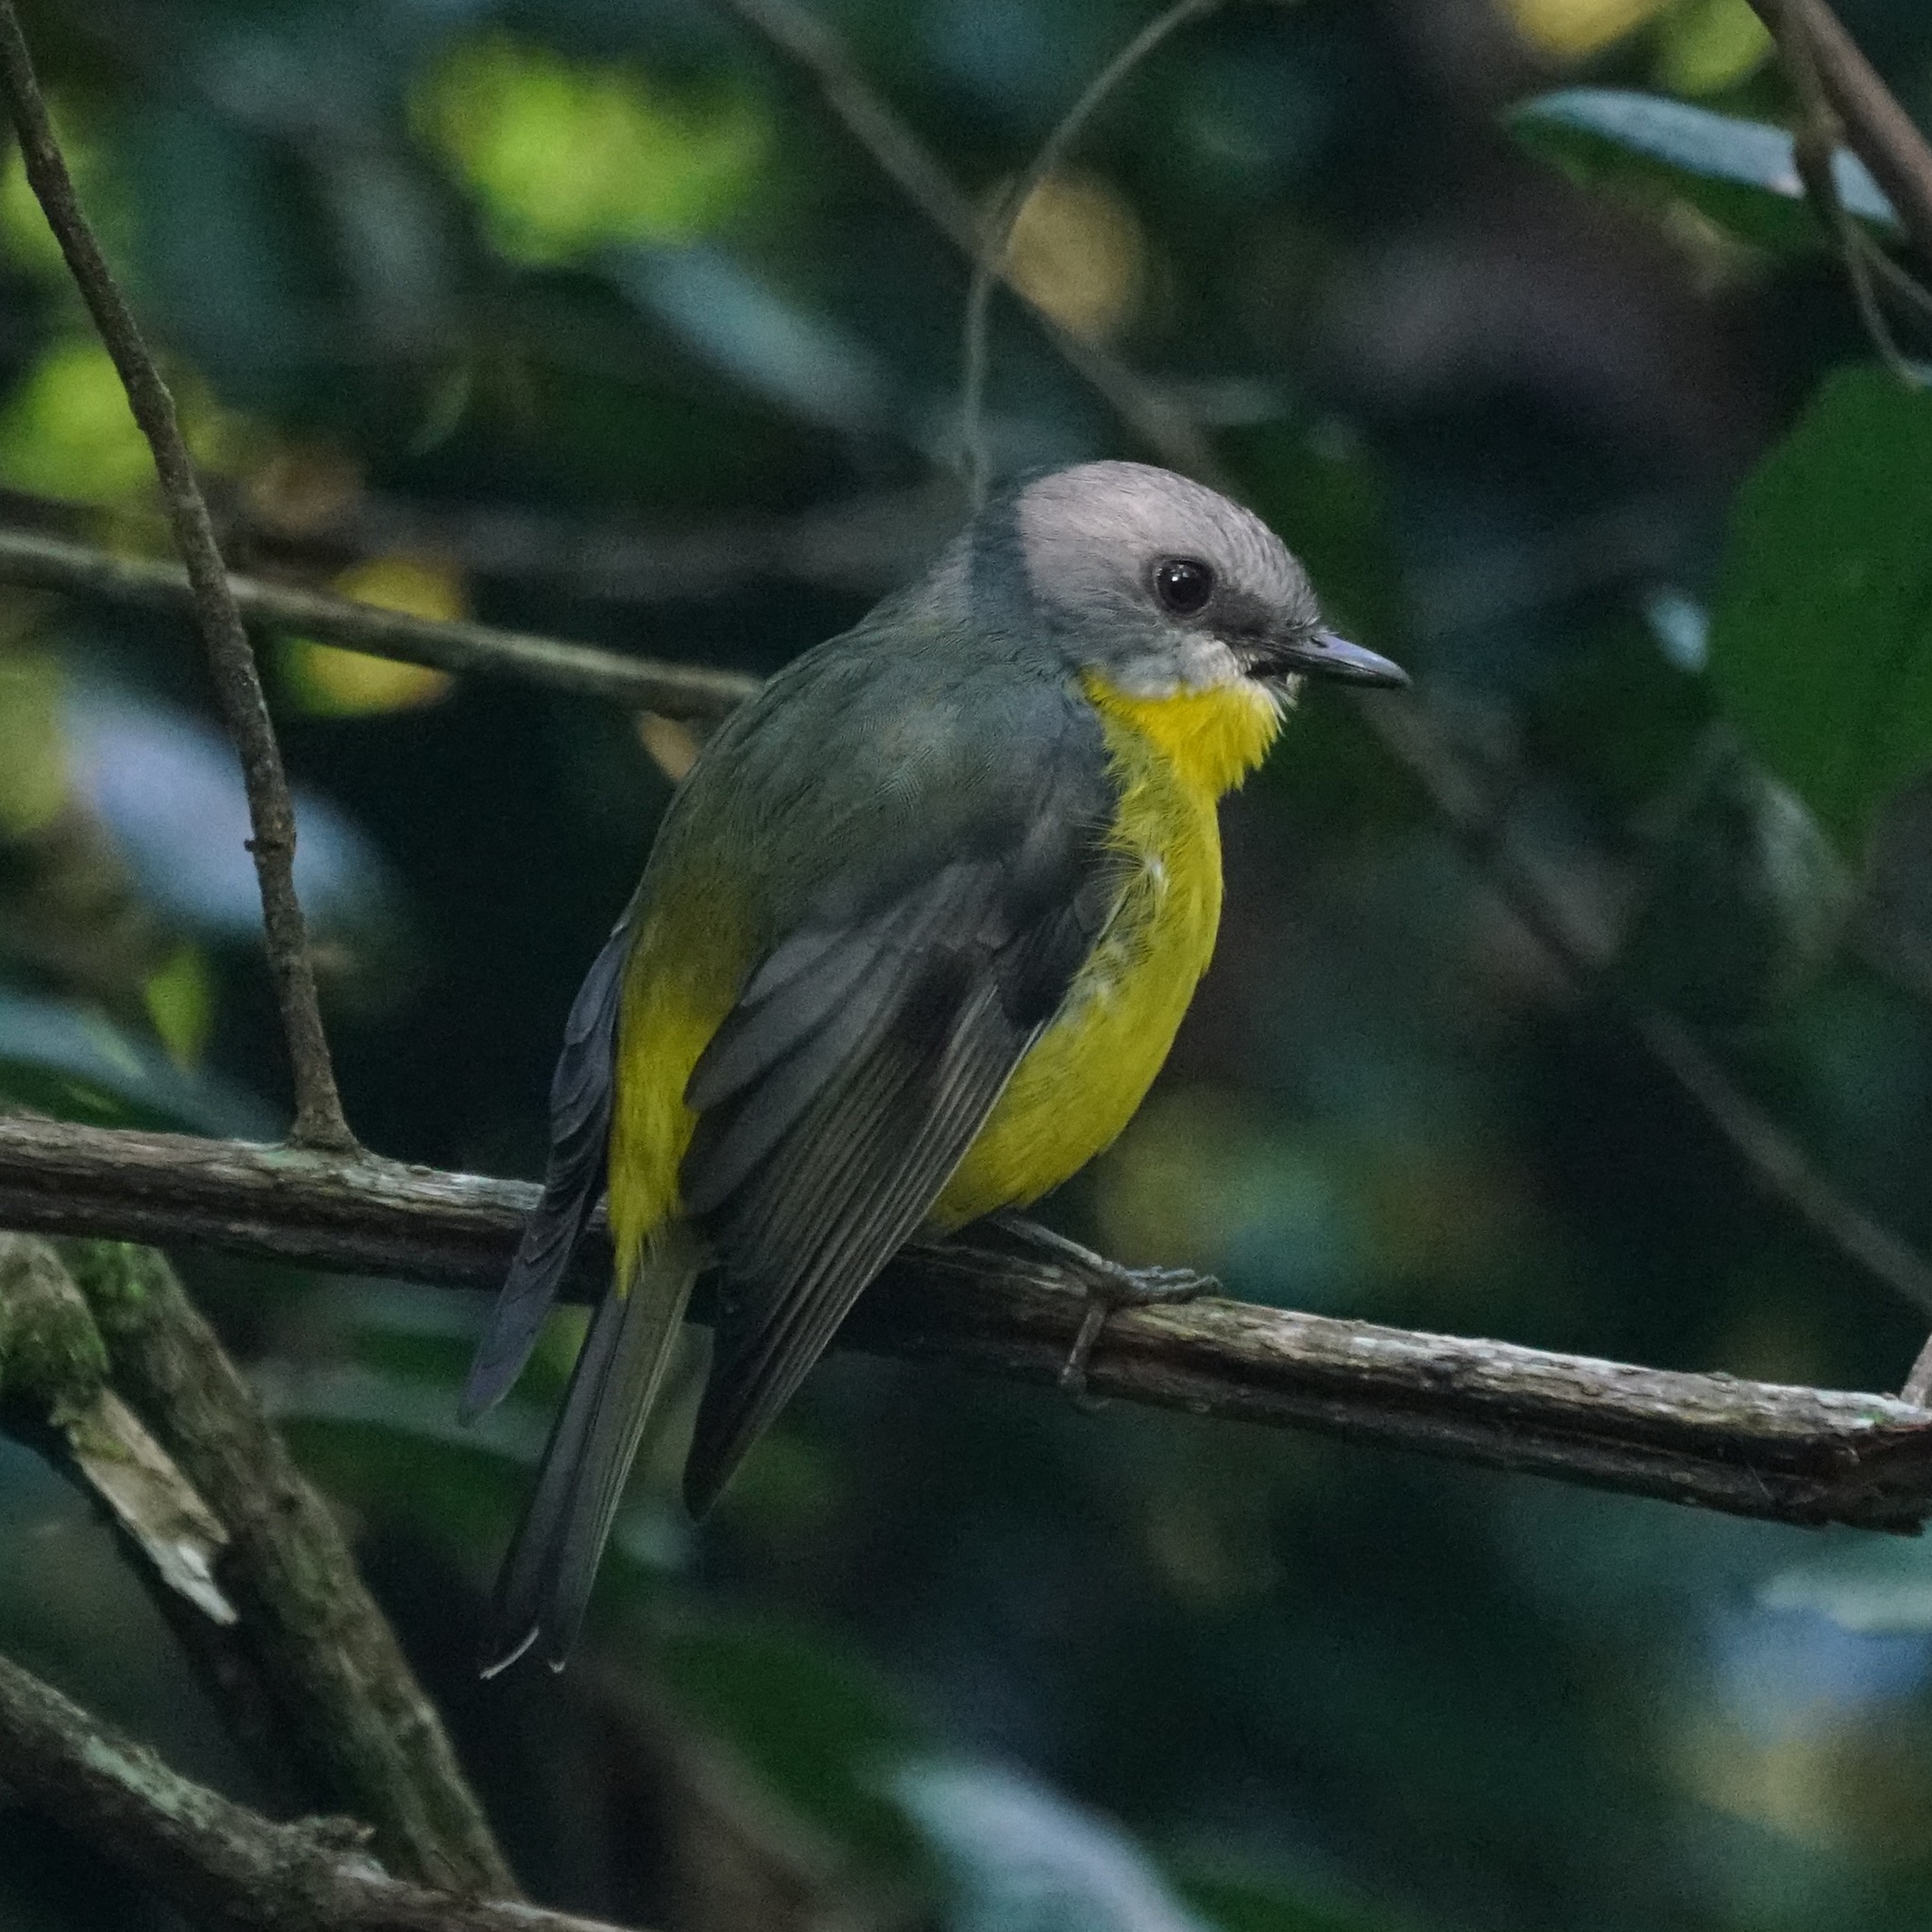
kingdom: Animalia
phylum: Chordata
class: Aves
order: Passeriformes
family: Petroicidae
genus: Eopsaltria
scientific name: Eopsaltria australis
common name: Eastern yellow robin
